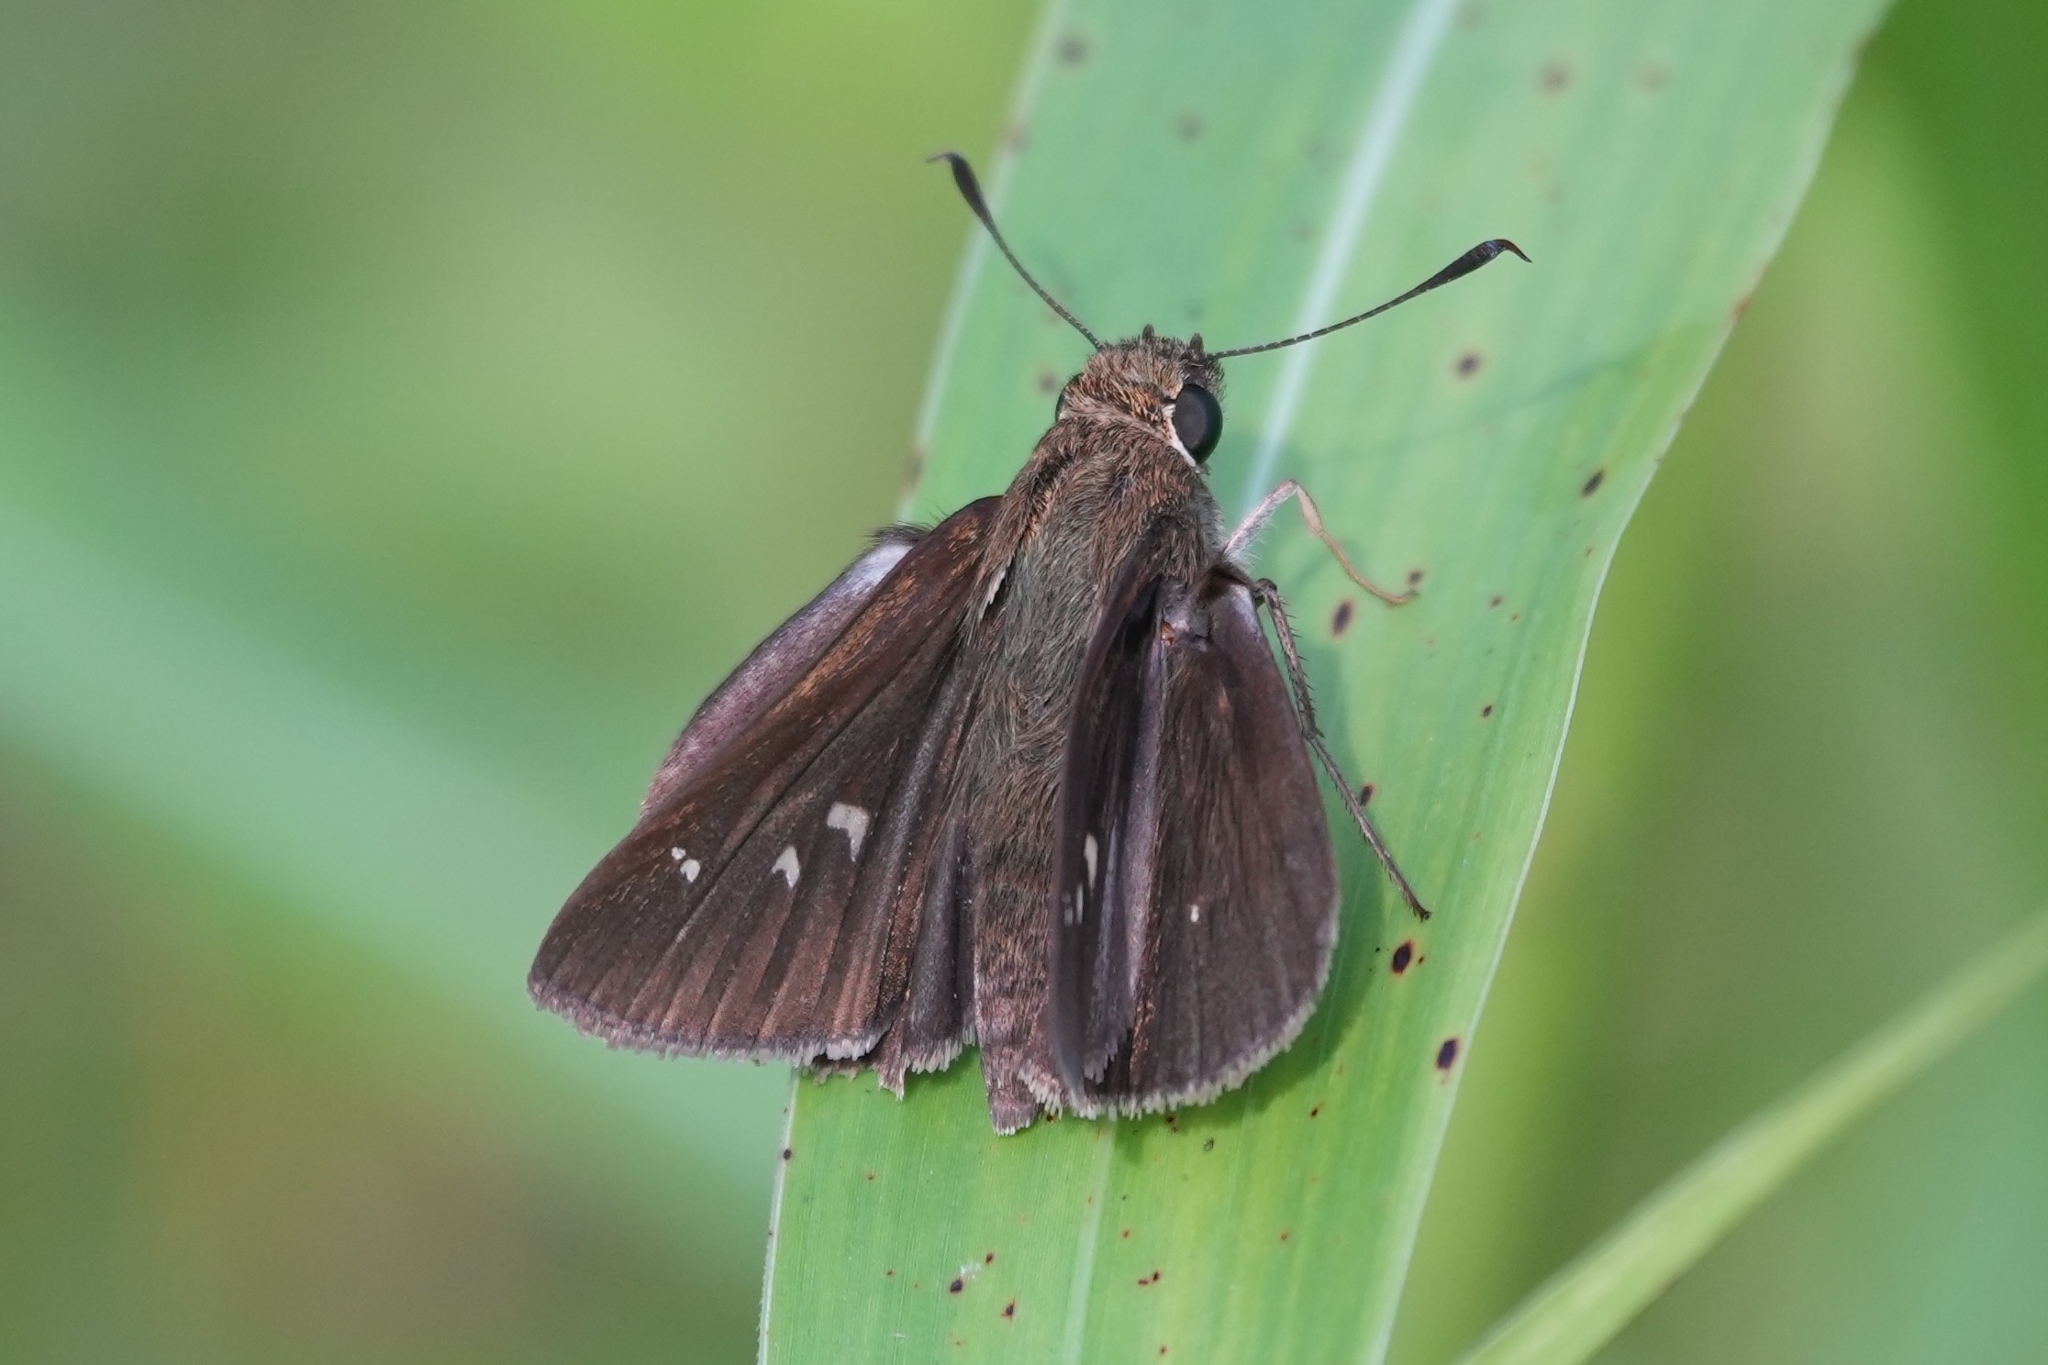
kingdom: Animalia
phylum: Arthropoda
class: Insecta
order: Lepidoptera
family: Hesperiidae
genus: Oligoria
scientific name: Oligoria maculata
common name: Twin-spot skipper
